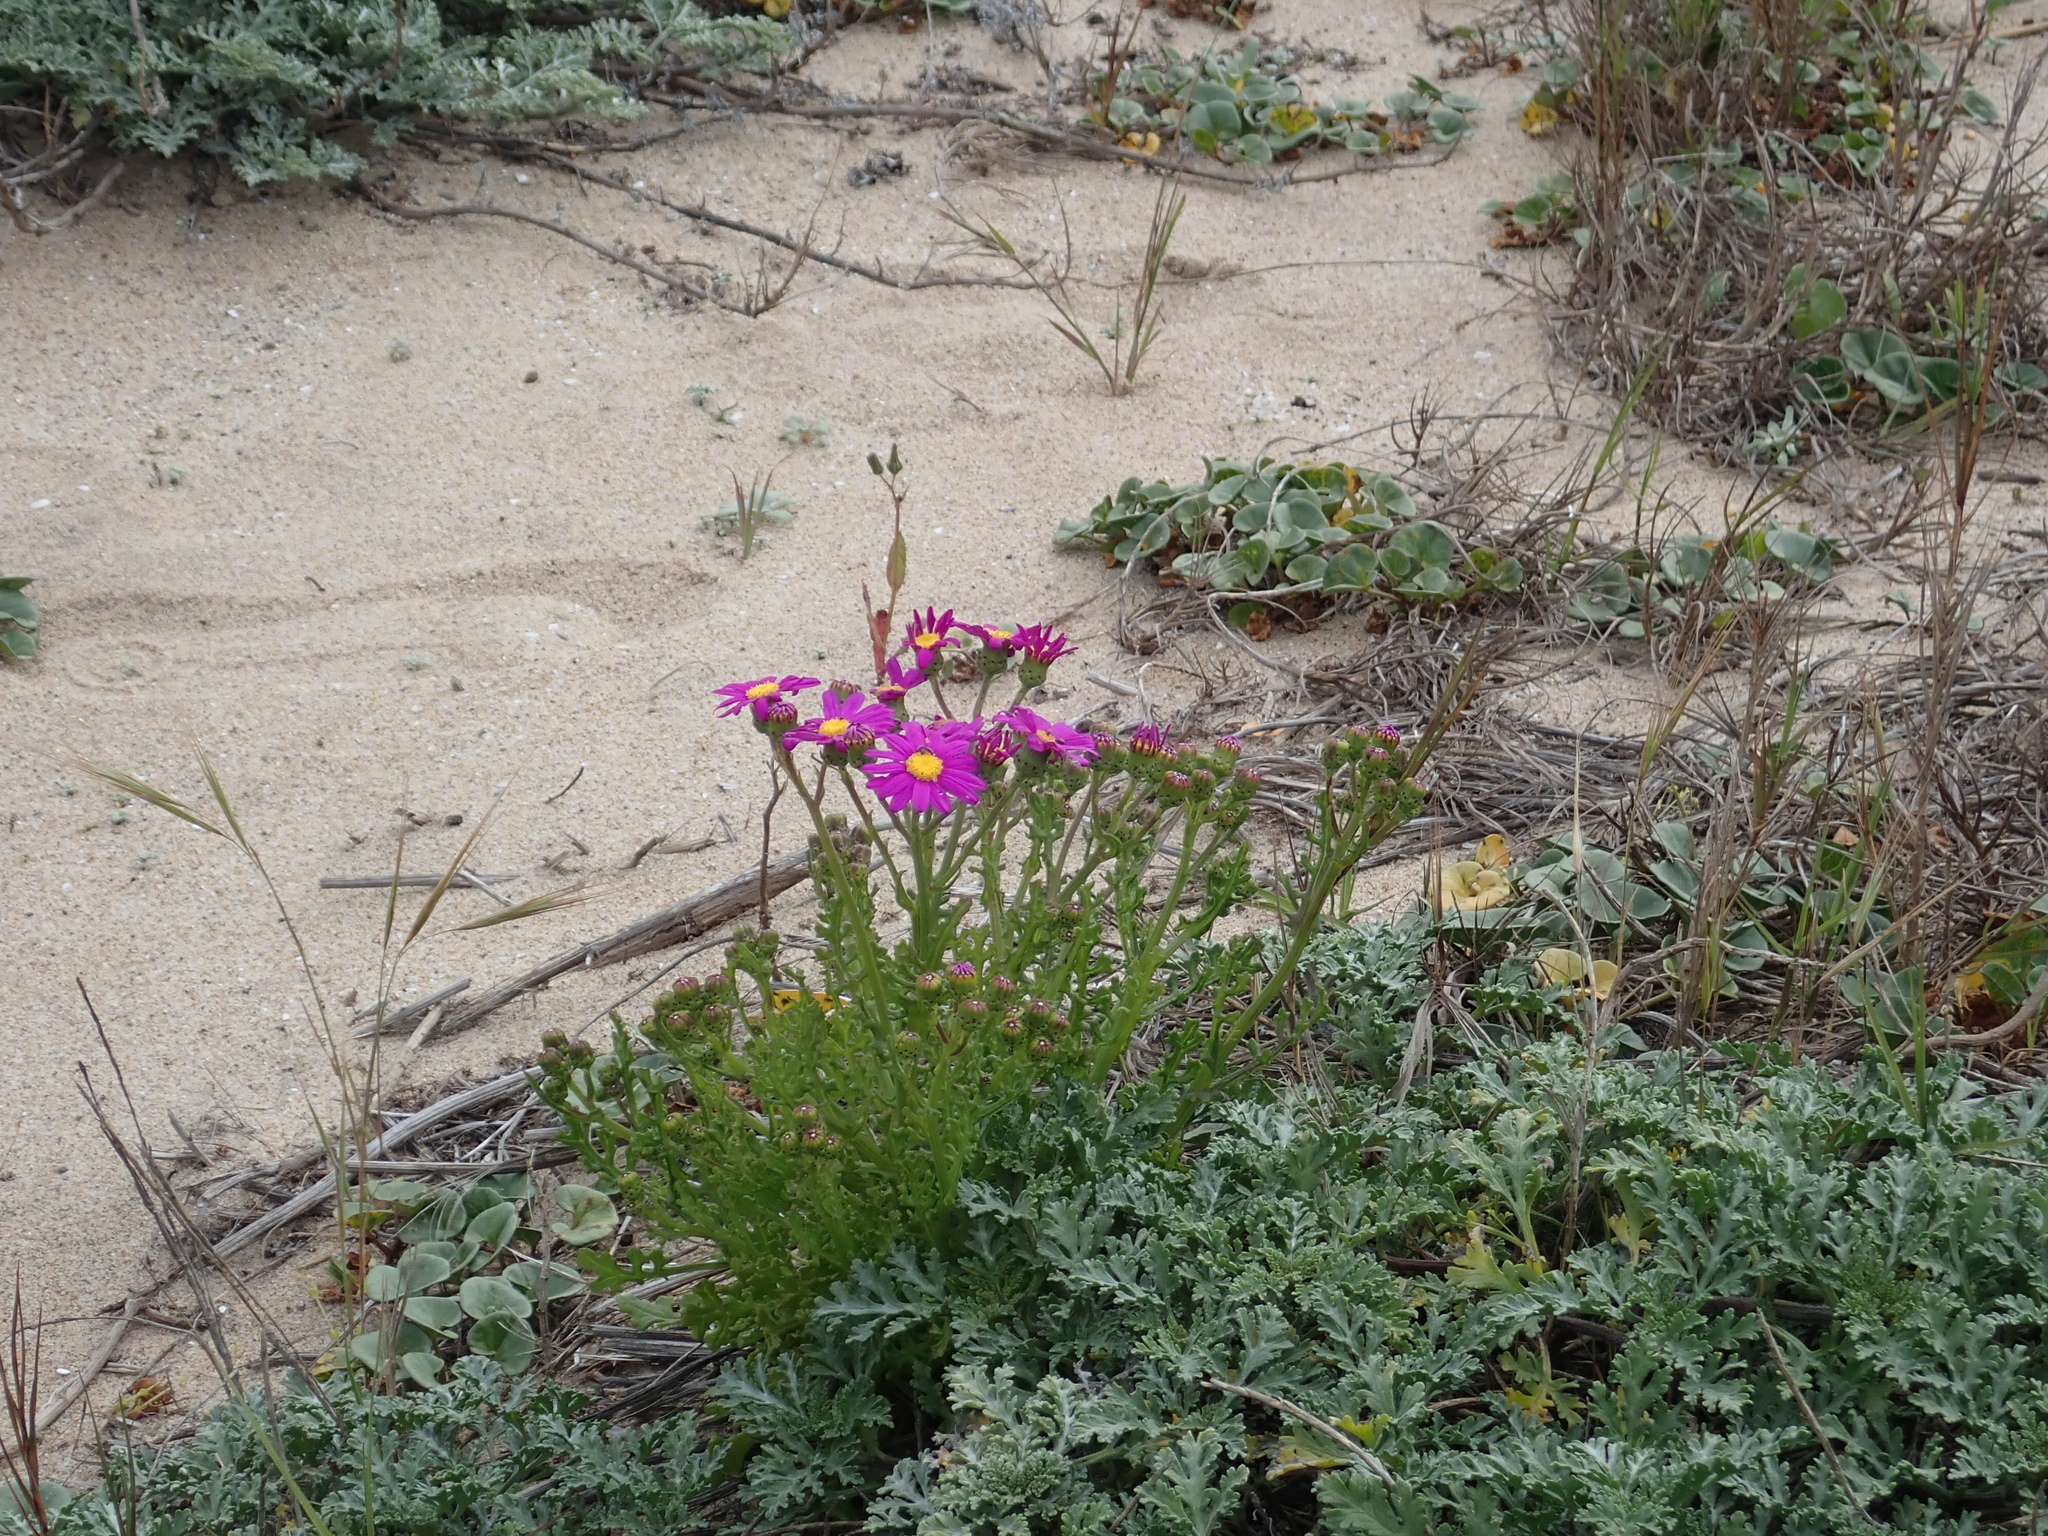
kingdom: Plantae
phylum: Tracheophyta
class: Magnoliopsida
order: Asterales
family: Asteraceae
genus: Senecio
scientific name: Senecio elegans
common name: Purple groundsel
